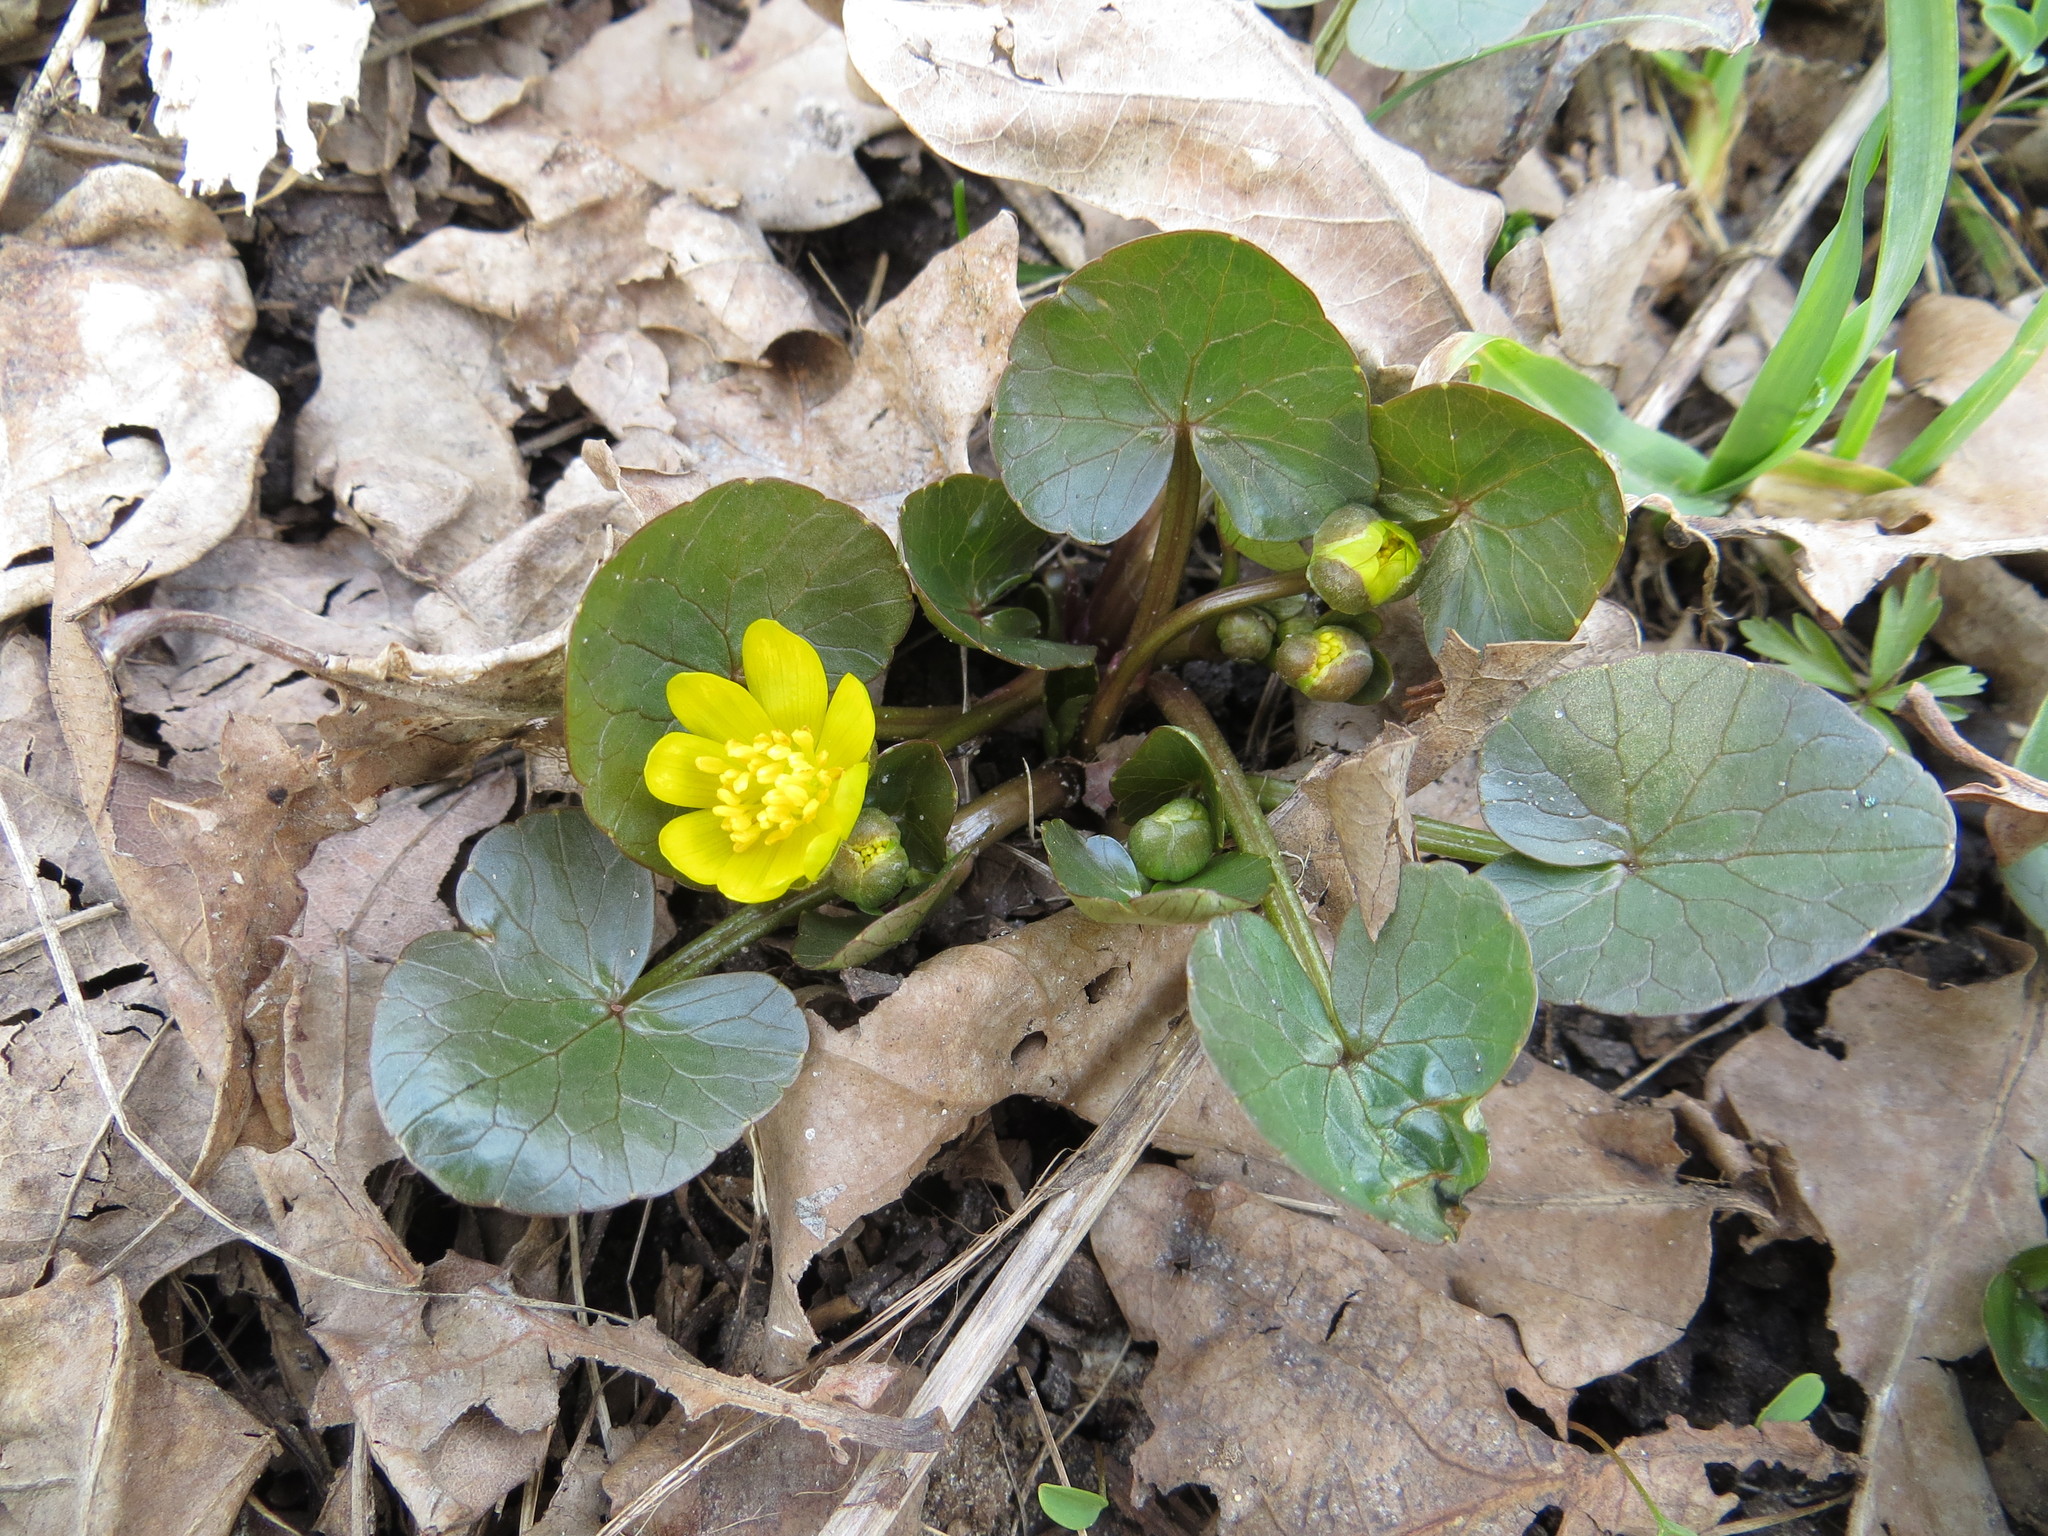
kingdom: Plantae
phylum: Tracheophyta
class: Magnoliopsida
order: Ranunculales
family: Ranunculaceae
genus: Ficaria
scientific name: Ficaria verna
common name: Lesser celandine
